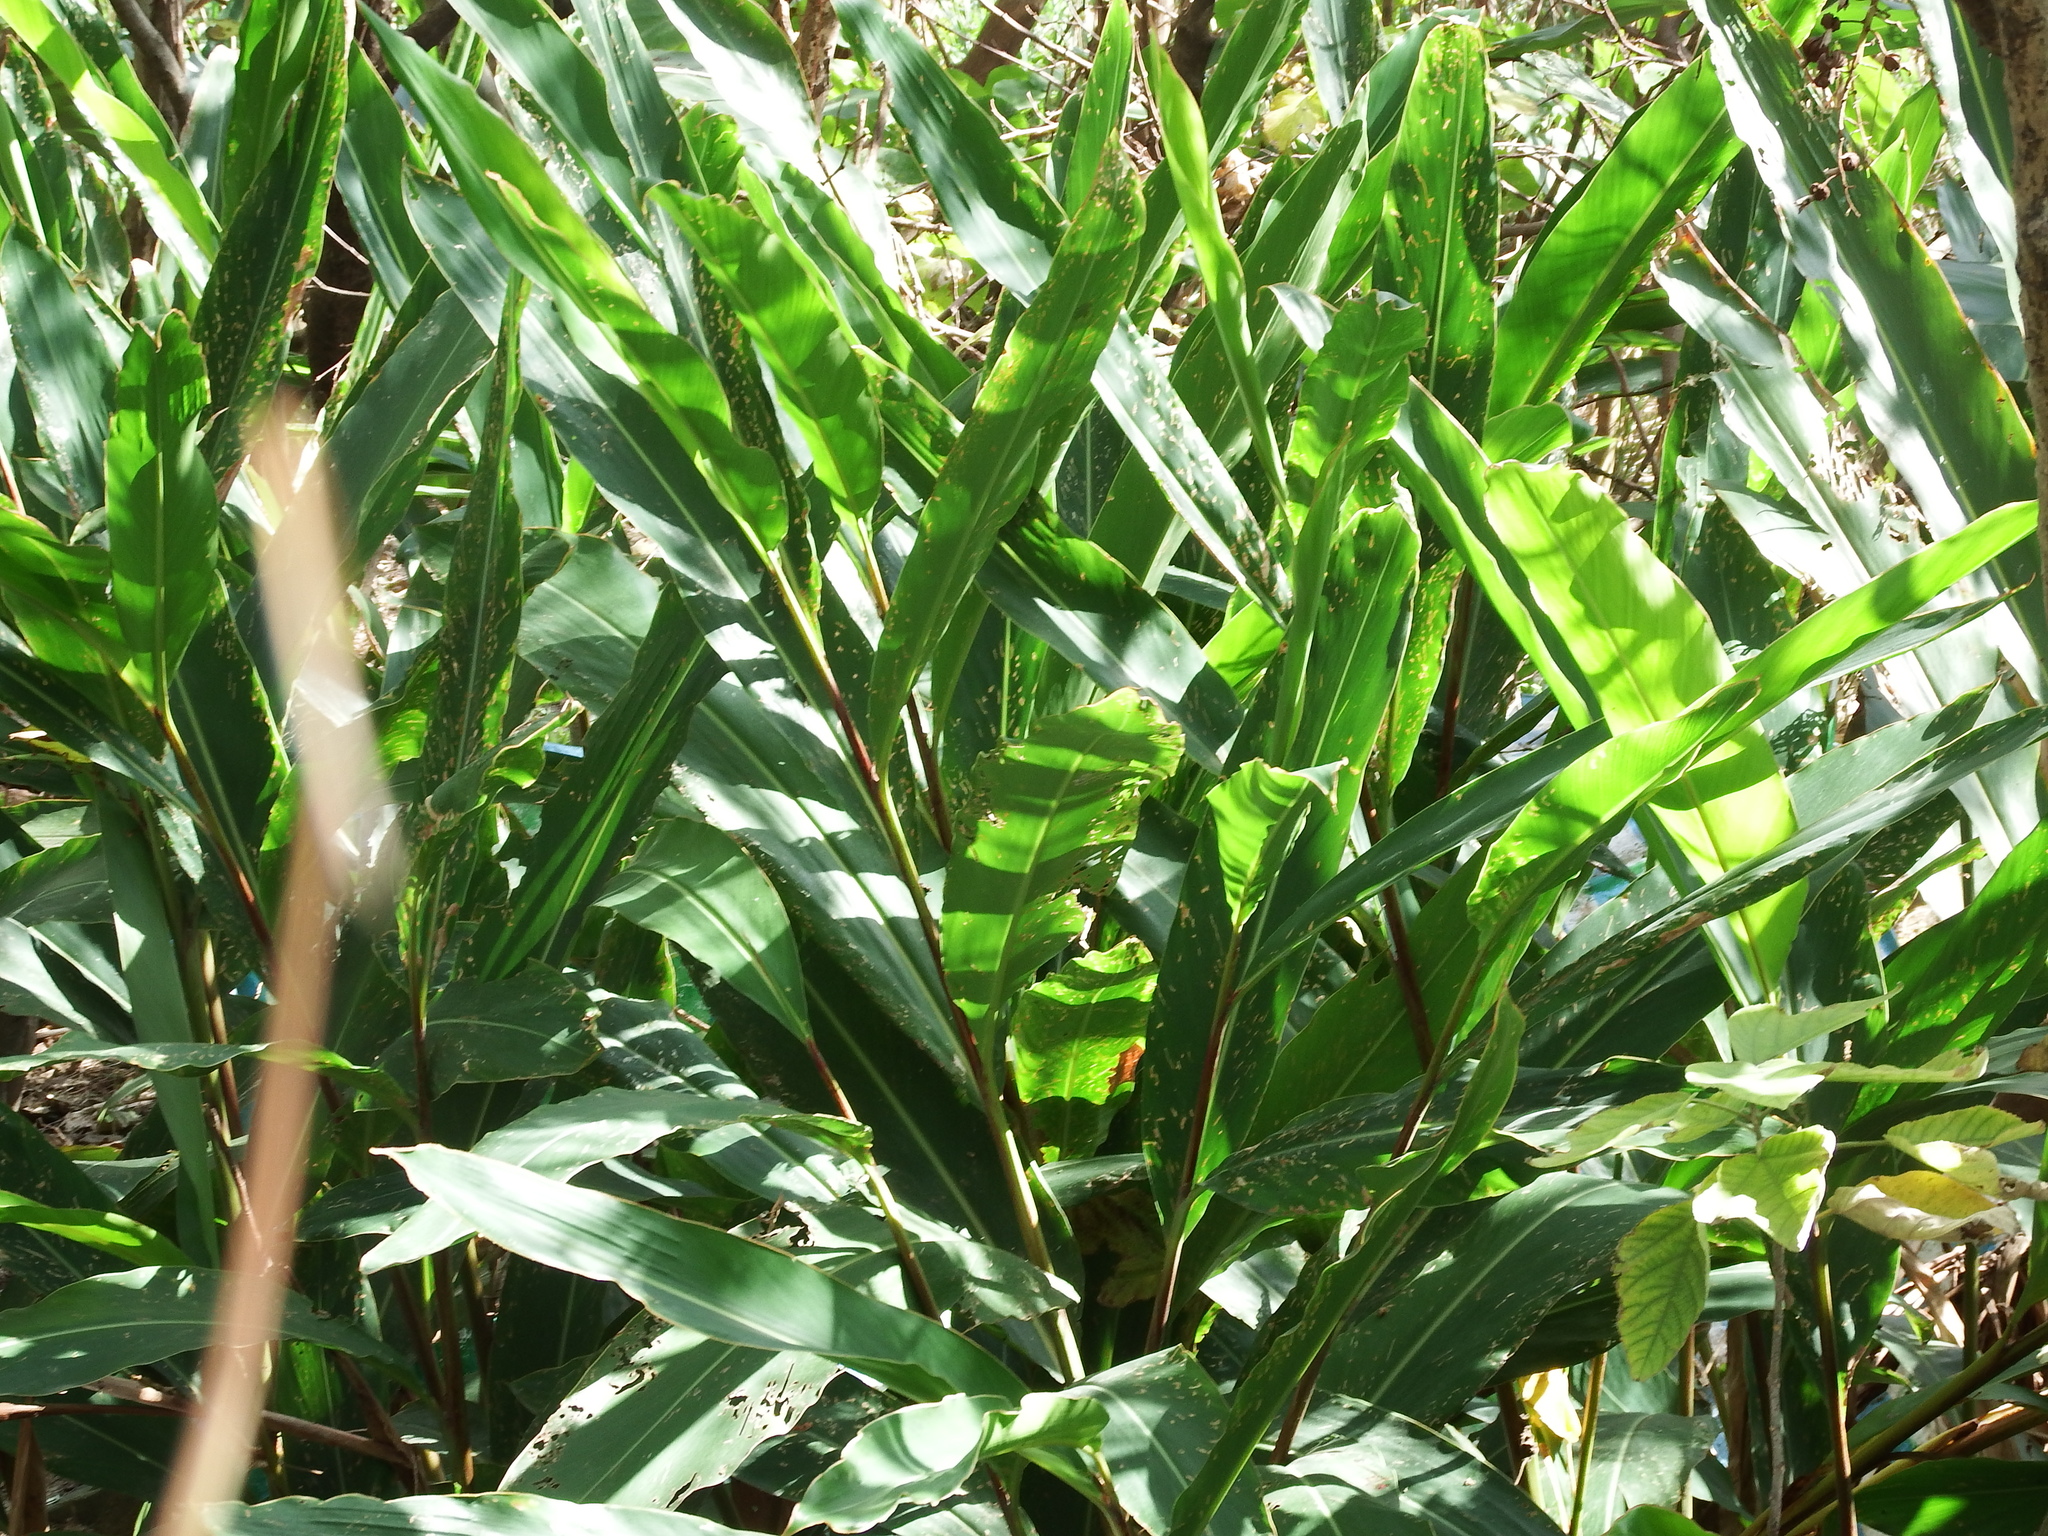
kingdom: Plantae
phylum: Tracheophyta
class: Liliopsida
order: Zingiberales
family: Zingiberaceae
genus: Alpinia
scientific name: Alpinia zerumbet
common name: Shellplant
